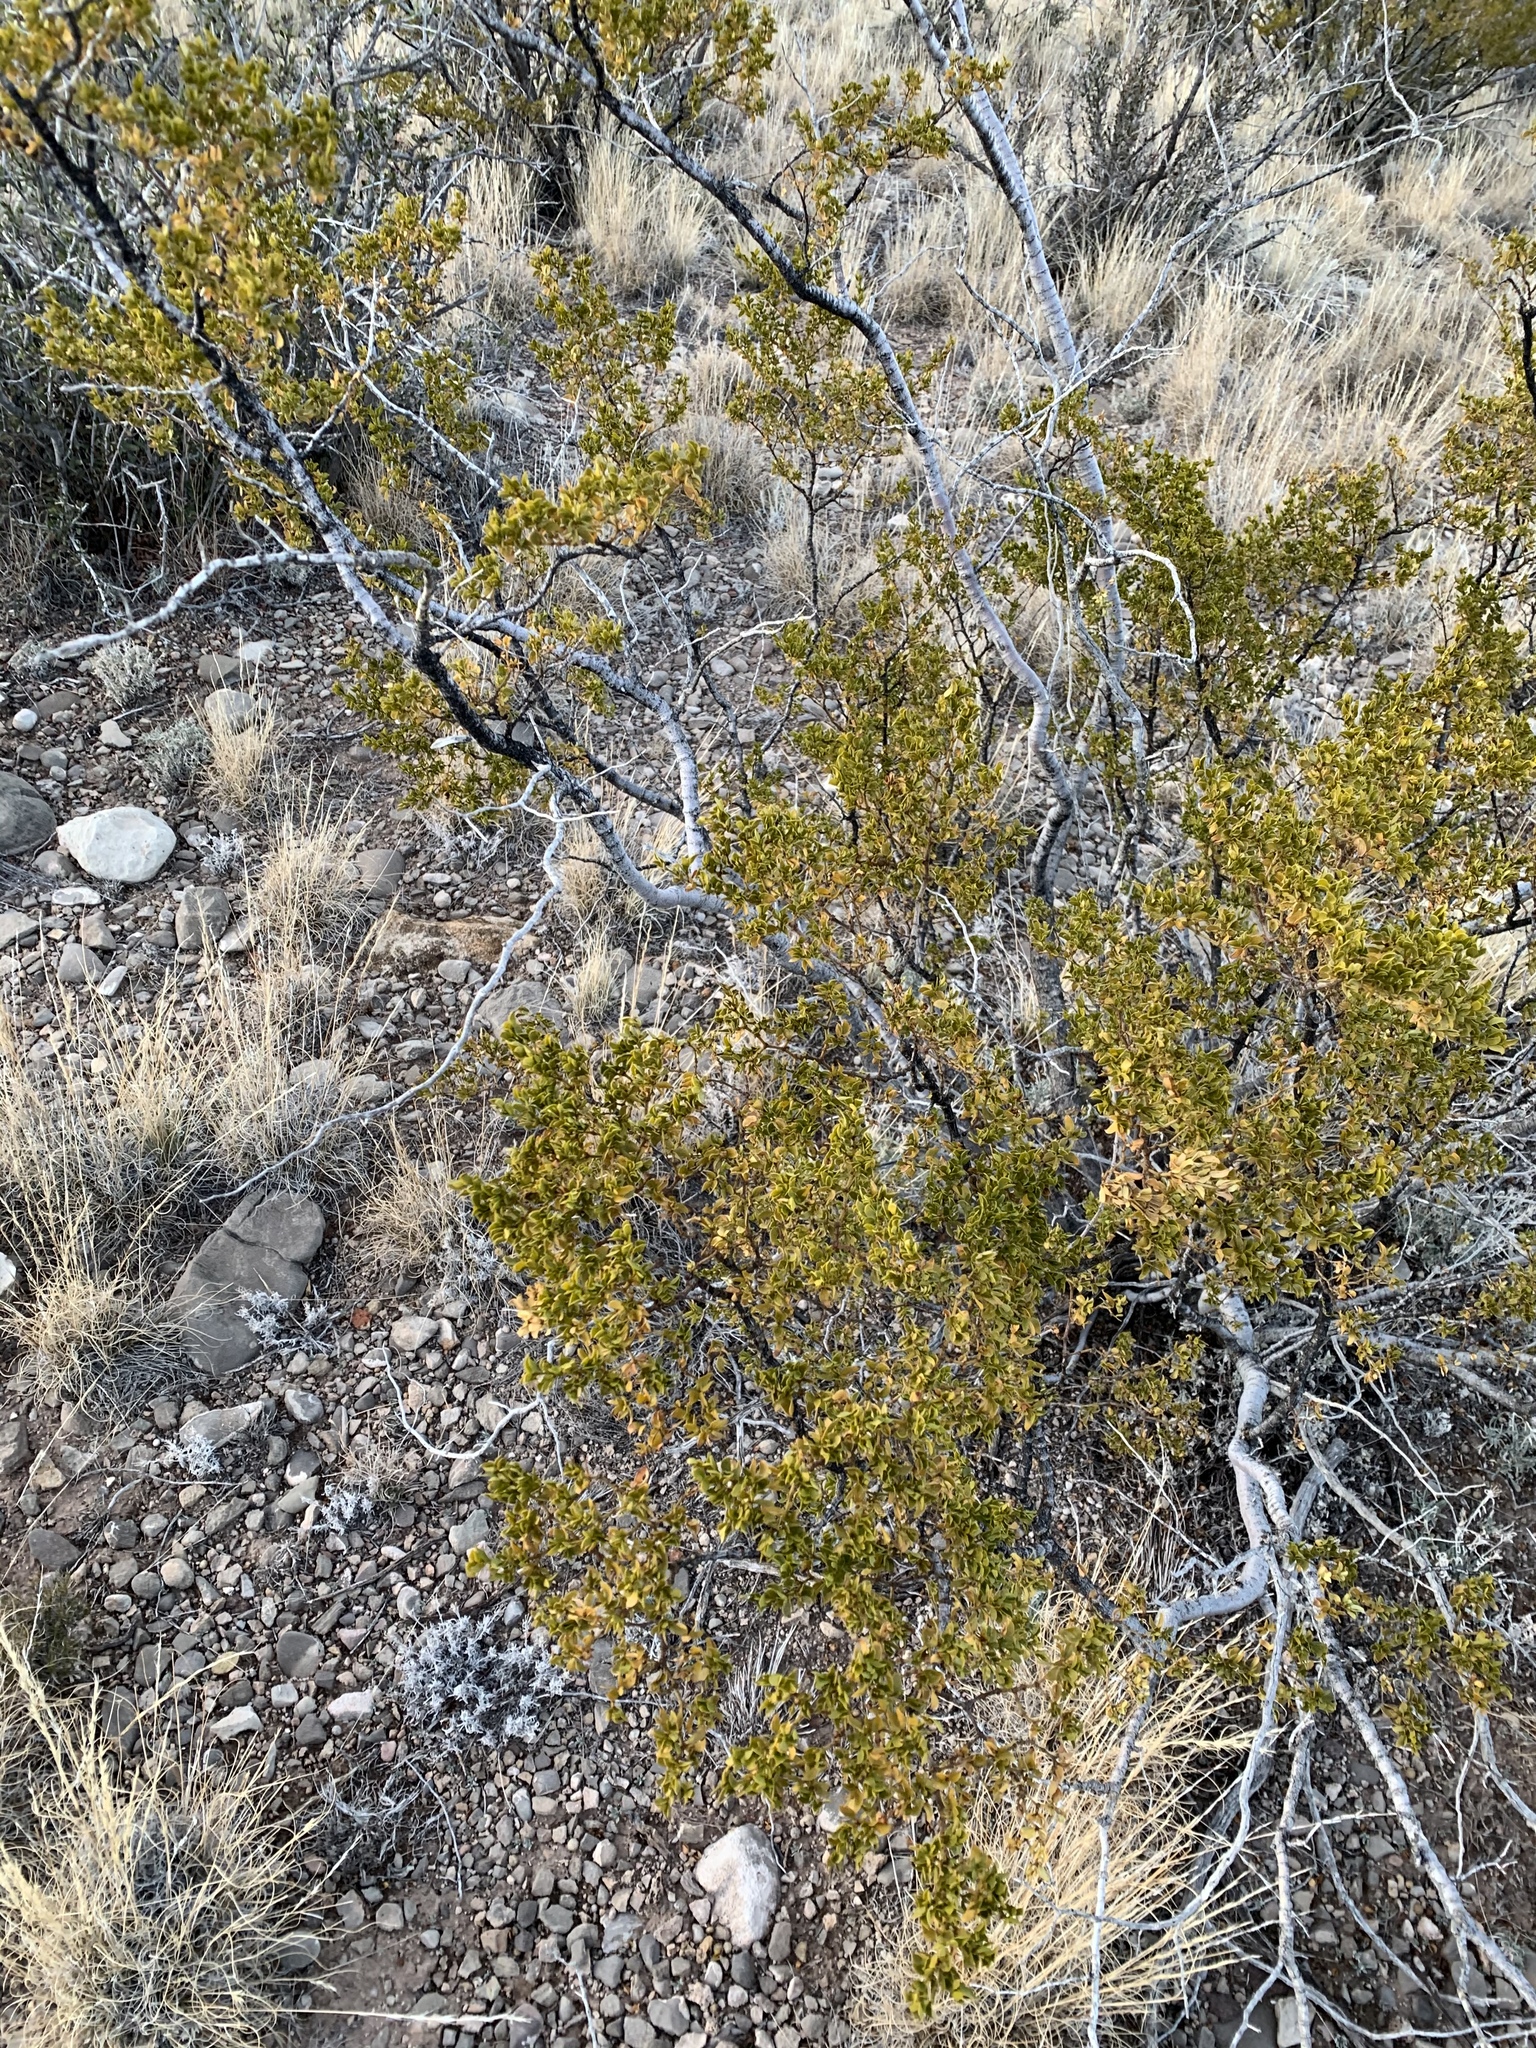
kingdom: Plantae
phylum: Tracheophyta
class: Magnoliopsida
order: Zygophyllales
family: Zygophyllaceae
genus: Larrea
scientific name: Larrea tridentata
